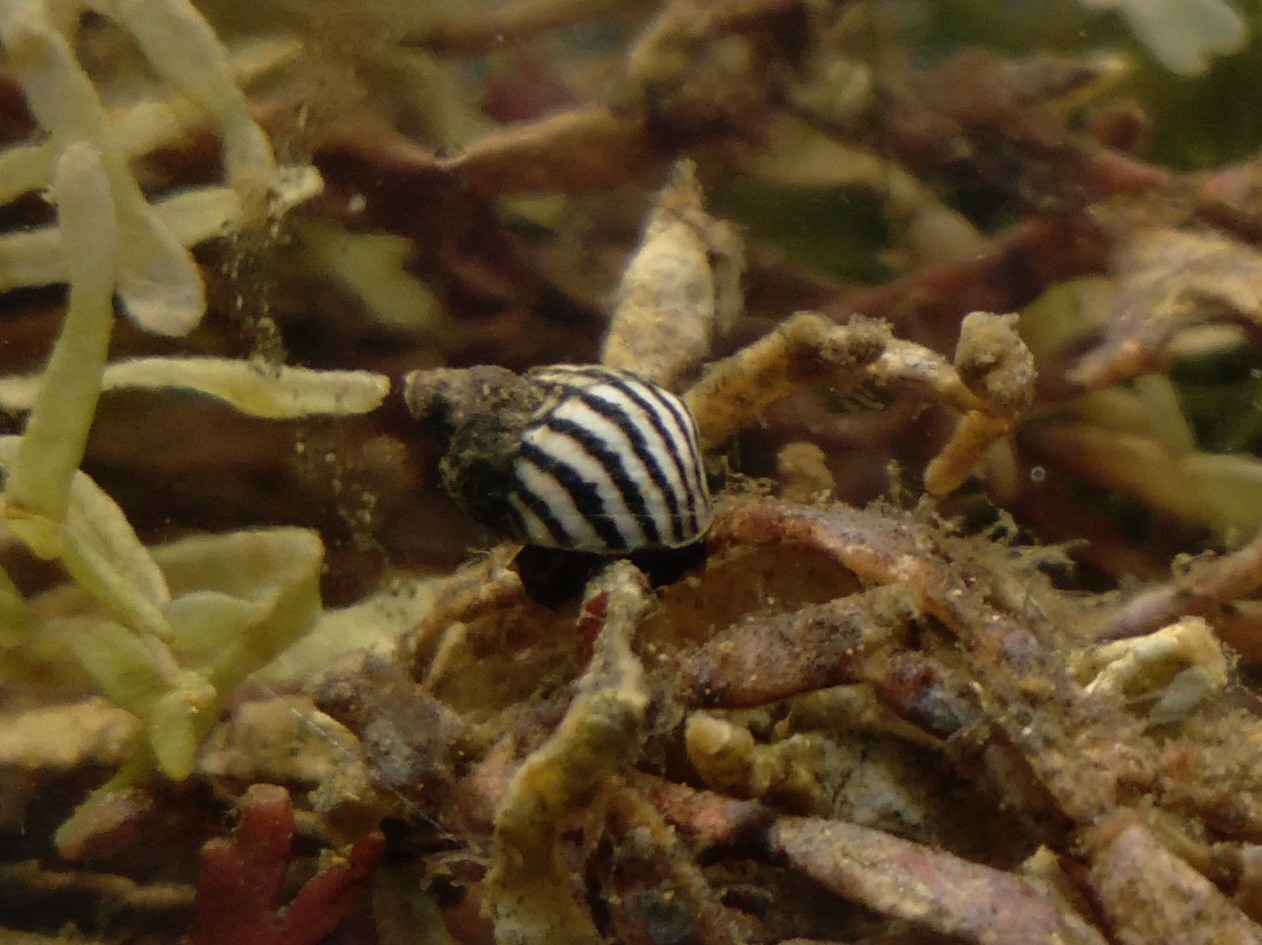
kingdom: Animalia
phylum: Mollusca
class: Gastropoda
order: Littorinimorpha
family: Littorinidae
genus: Echinolittorina
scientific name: Echinolittorina lineolata
